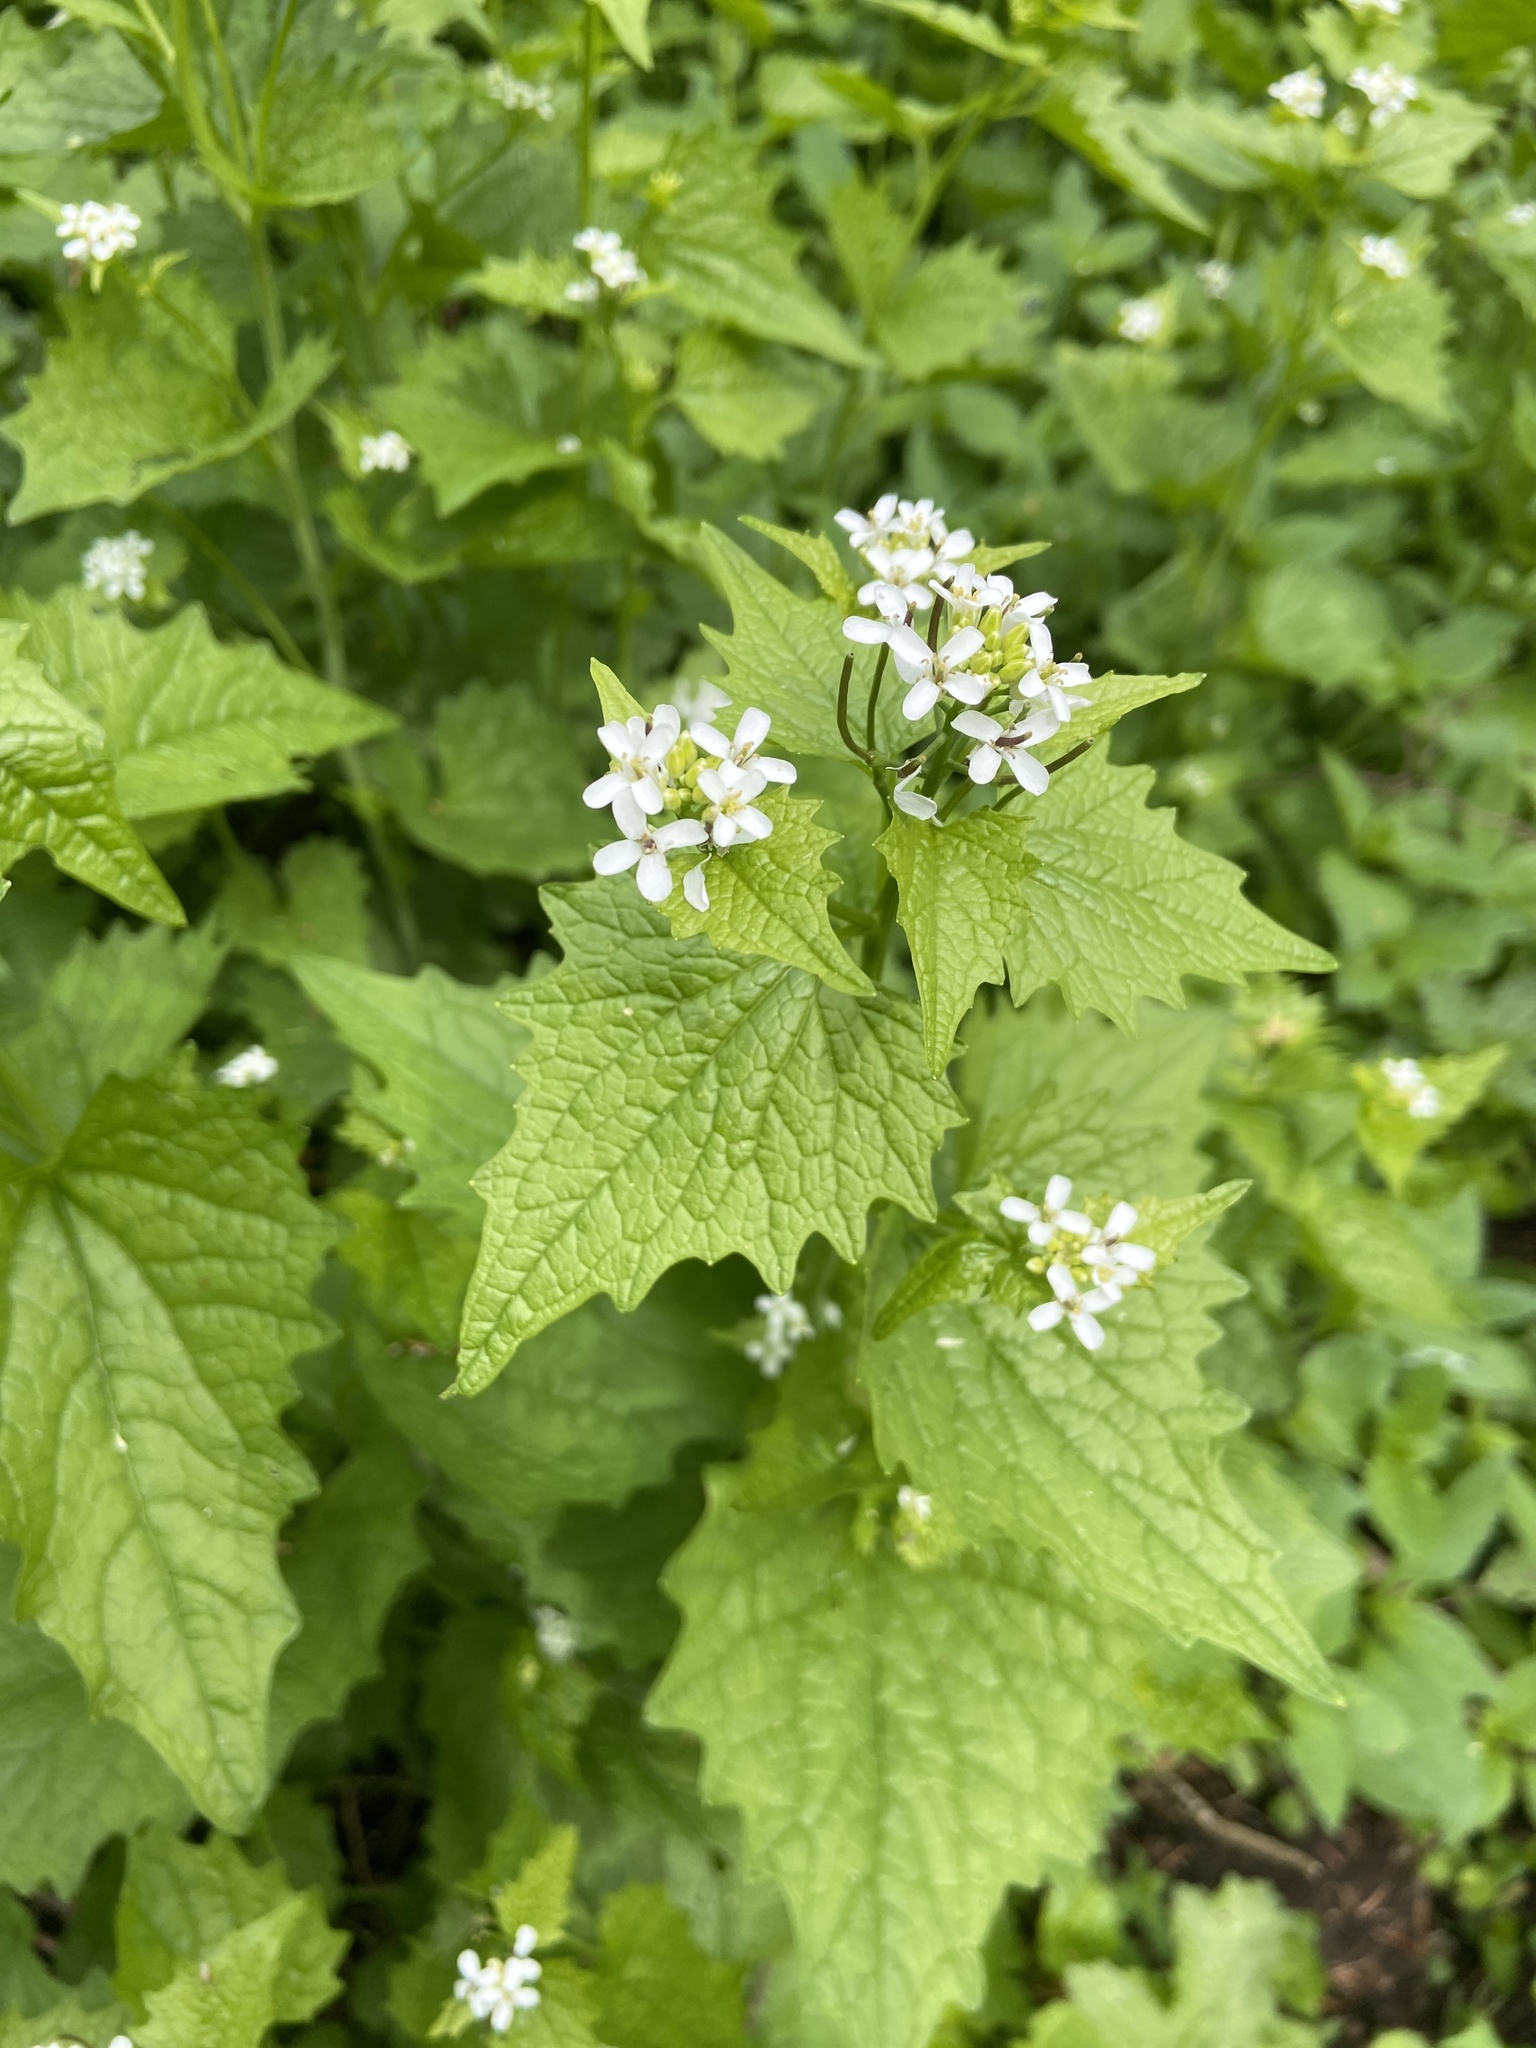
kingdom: Plantae
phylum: Tracheophyta
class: Magnoliopsida
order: Brassicales
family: Brassicaceae
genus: Alliaria
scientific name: Alliaria petiolata
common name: Garlic mustard
